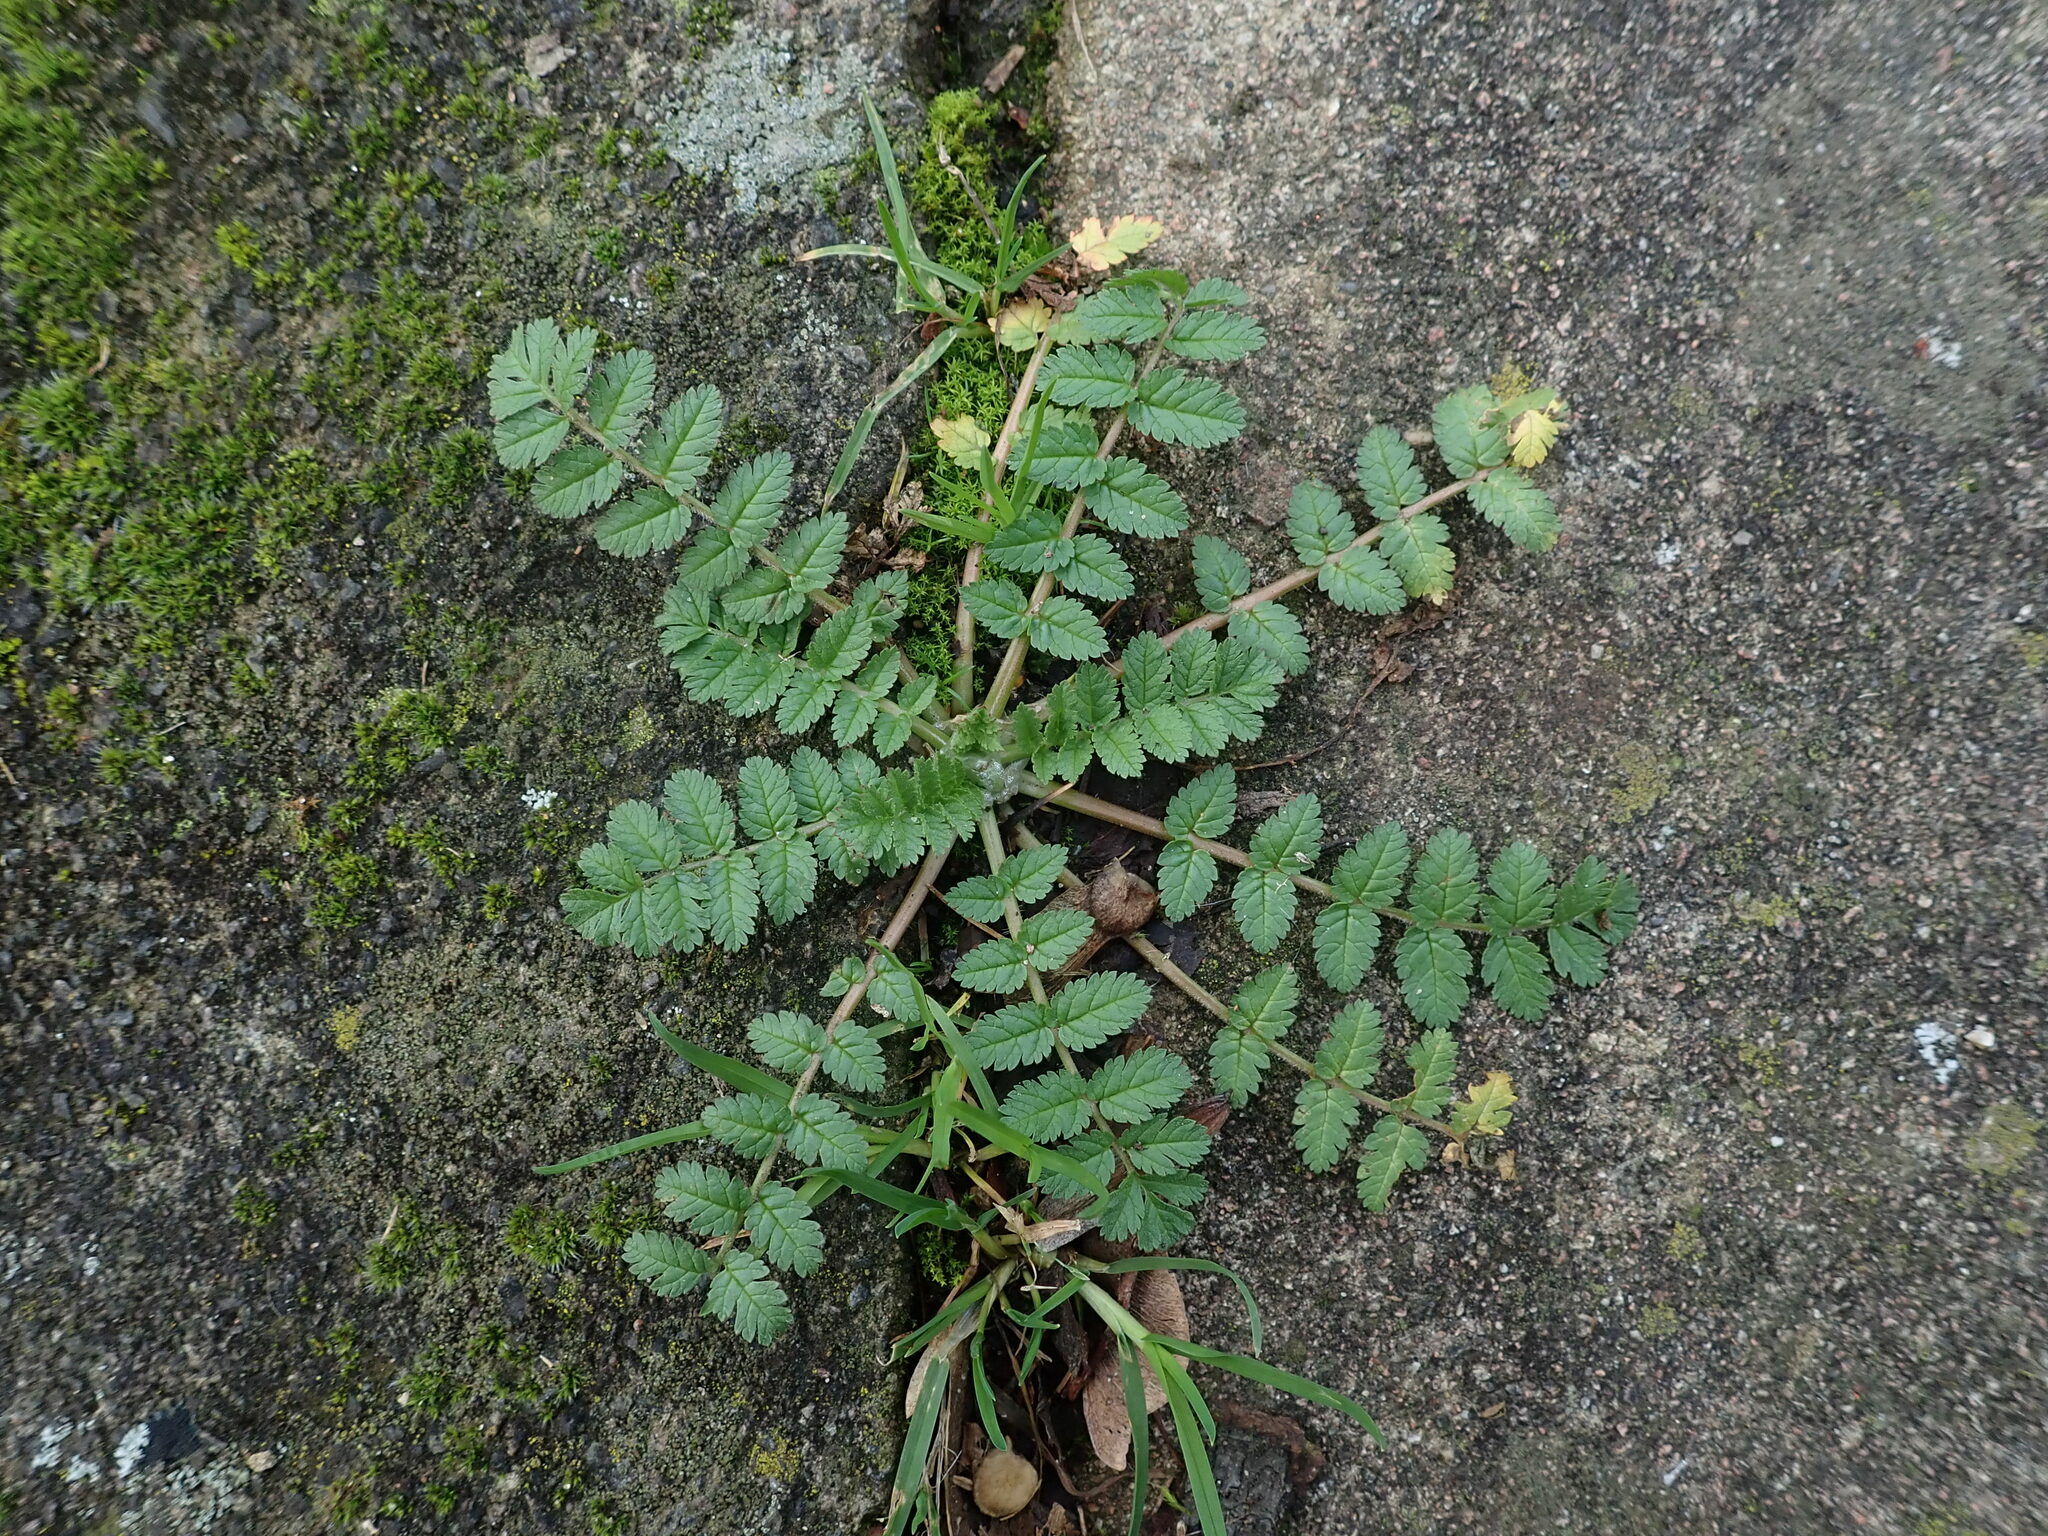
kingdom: Plantae
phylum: Tracheophyta
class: Magnoliopsida
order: Geraniales
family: Geraniaceae
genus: Erodium
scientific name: Erodium moschatum
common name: Musk stork's-bill
